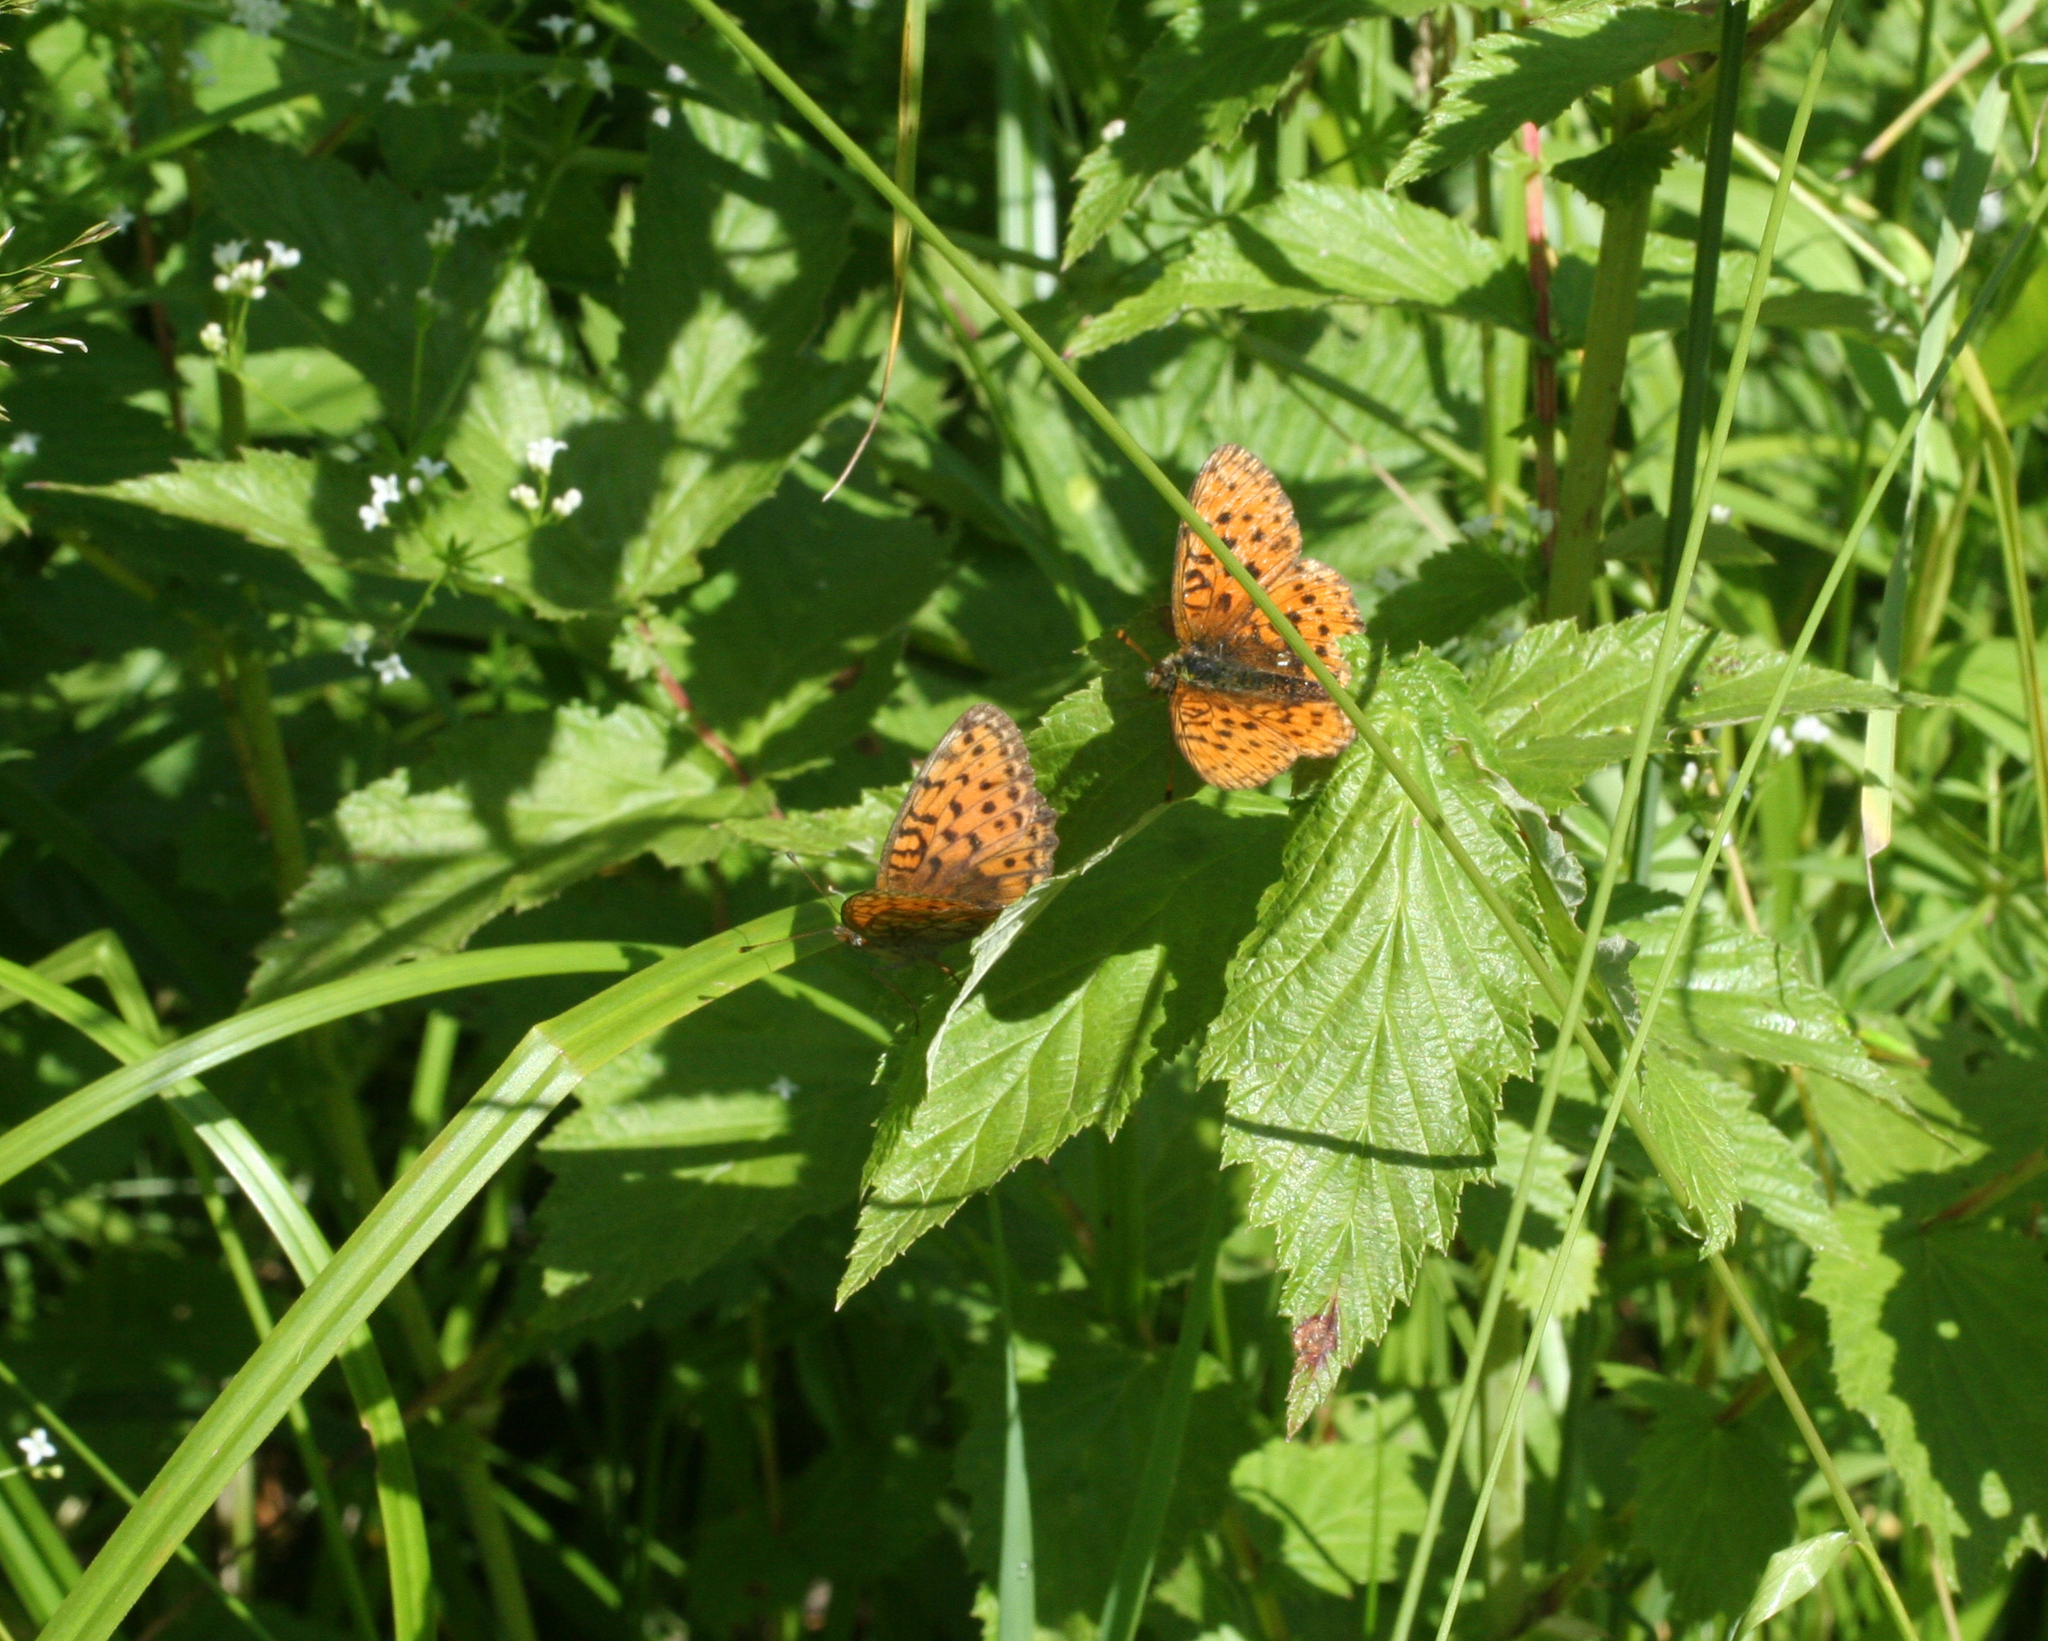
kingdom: Animalia
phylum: Arthropoda
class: Insecta
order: Lepidoptera
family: Nymphalidae
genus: Brenthis
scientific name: Brenthis ino
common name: Lesser marbled fritillary
